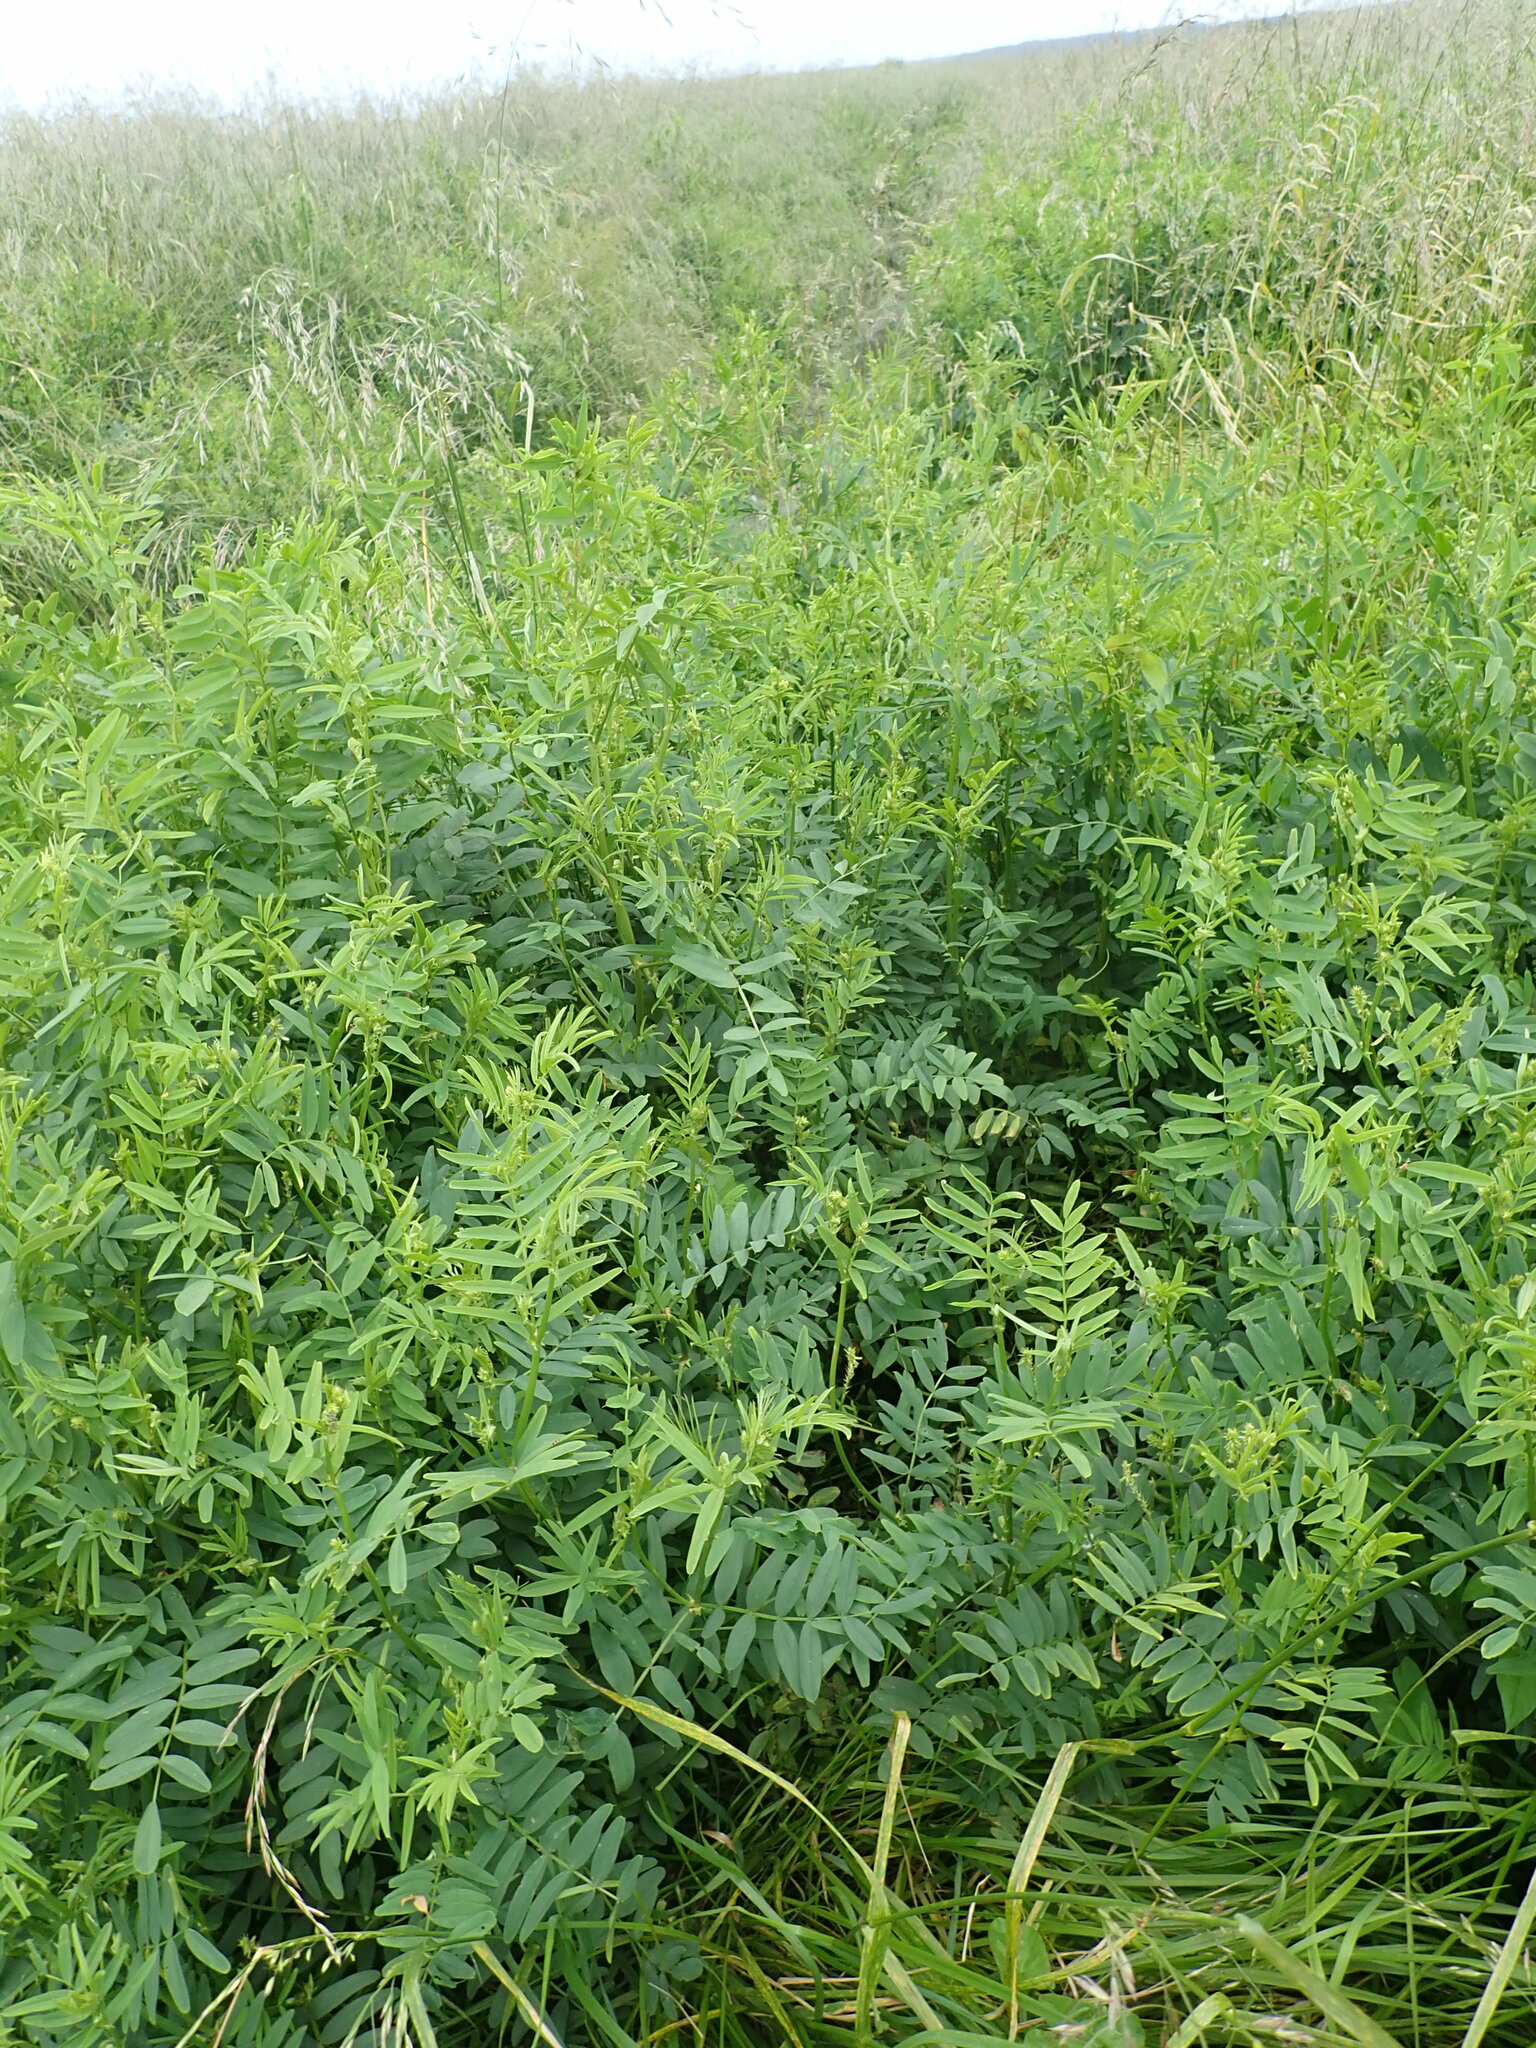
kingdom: Plantae
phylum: Tracheophyta
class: Magnoliopsida
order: Fabales
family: Fabaceae
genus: Galega
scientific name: Galega officinalis
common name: Goat's-rue
